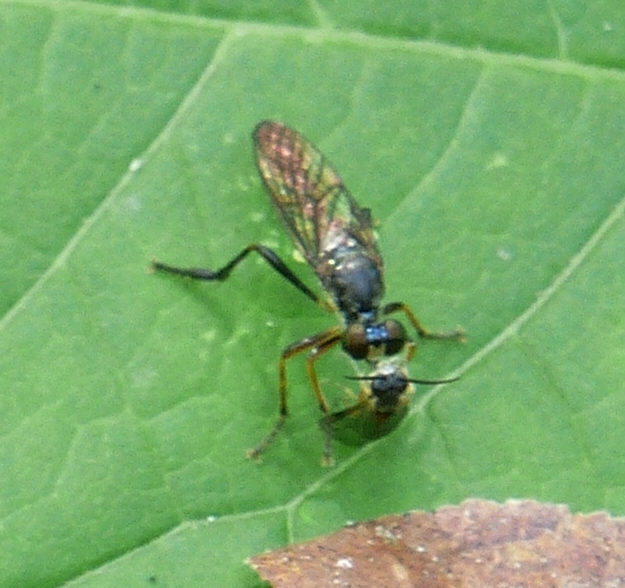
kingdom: Animalia
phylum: Arthropoda
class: Insecta
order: Diptera
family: Asilidae
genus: Dioctria
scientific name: Dioctria hyalipennis
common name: Stripe-legged robberfly
